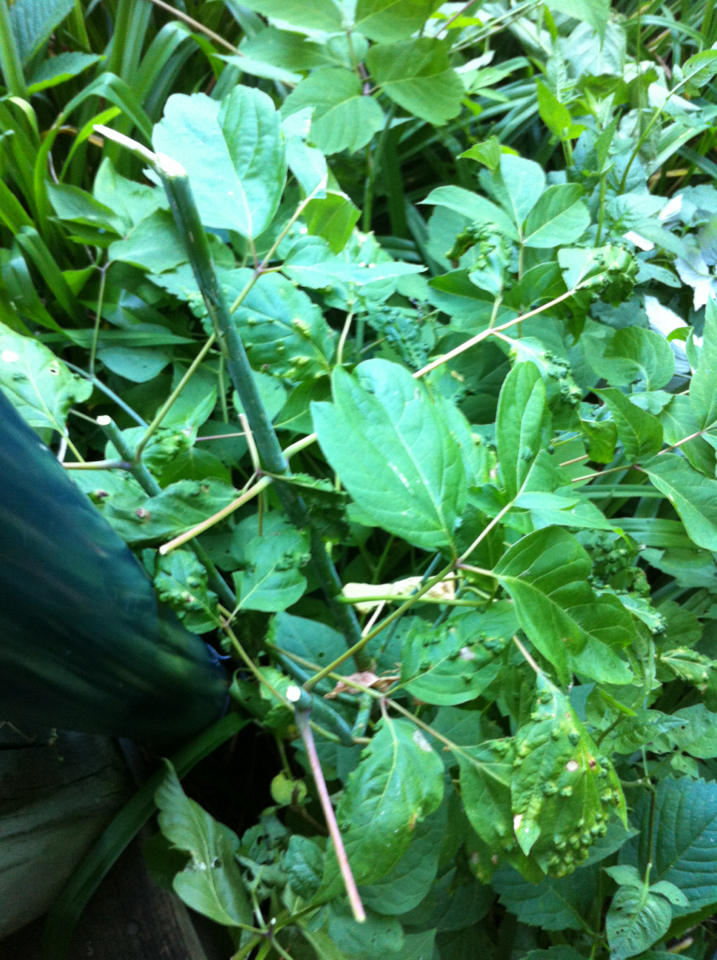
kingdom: Plantae
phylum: Tracheophyta
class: Magnoliopsida
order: Sapindales
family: Sapindaceae
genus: Acer
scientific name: Acer negundo
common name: Ashleaf maple
